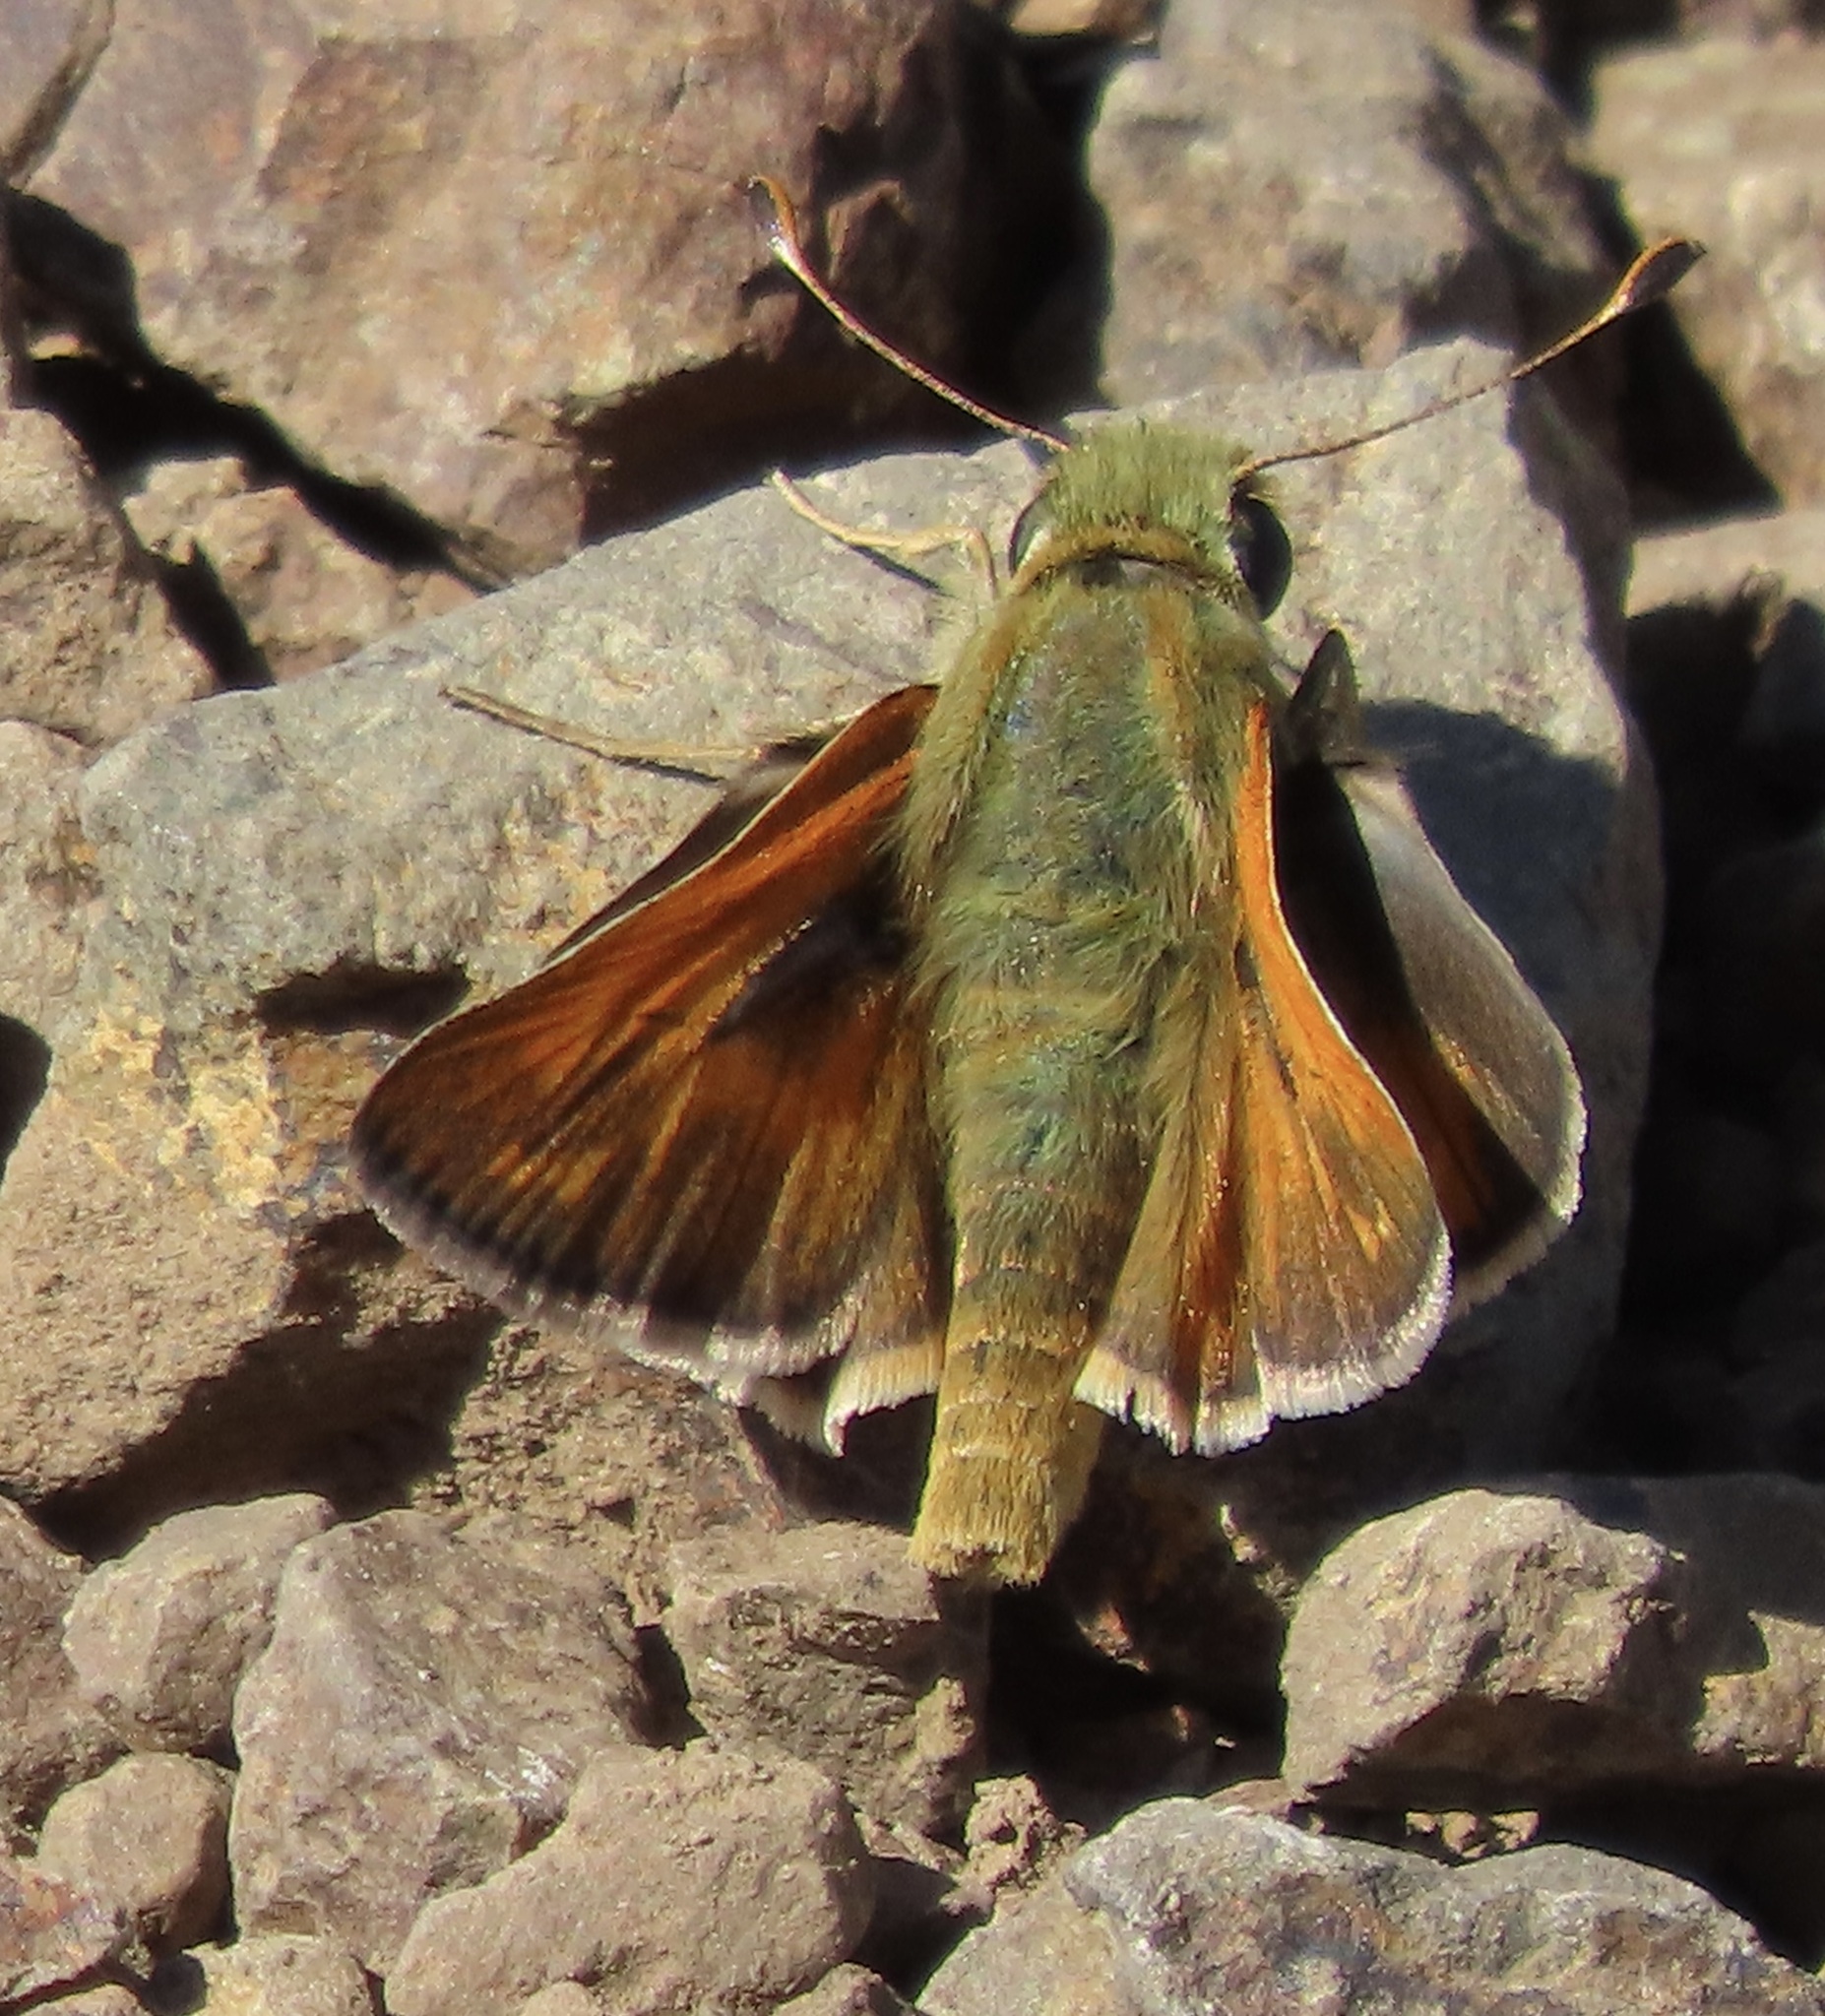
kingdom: Animalia
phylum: Arthropoda
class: Insecta
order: Lepidoptera
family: Hesperiidae
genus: Hesperia
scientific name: Hesperia columbia
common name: Columbian skipper
